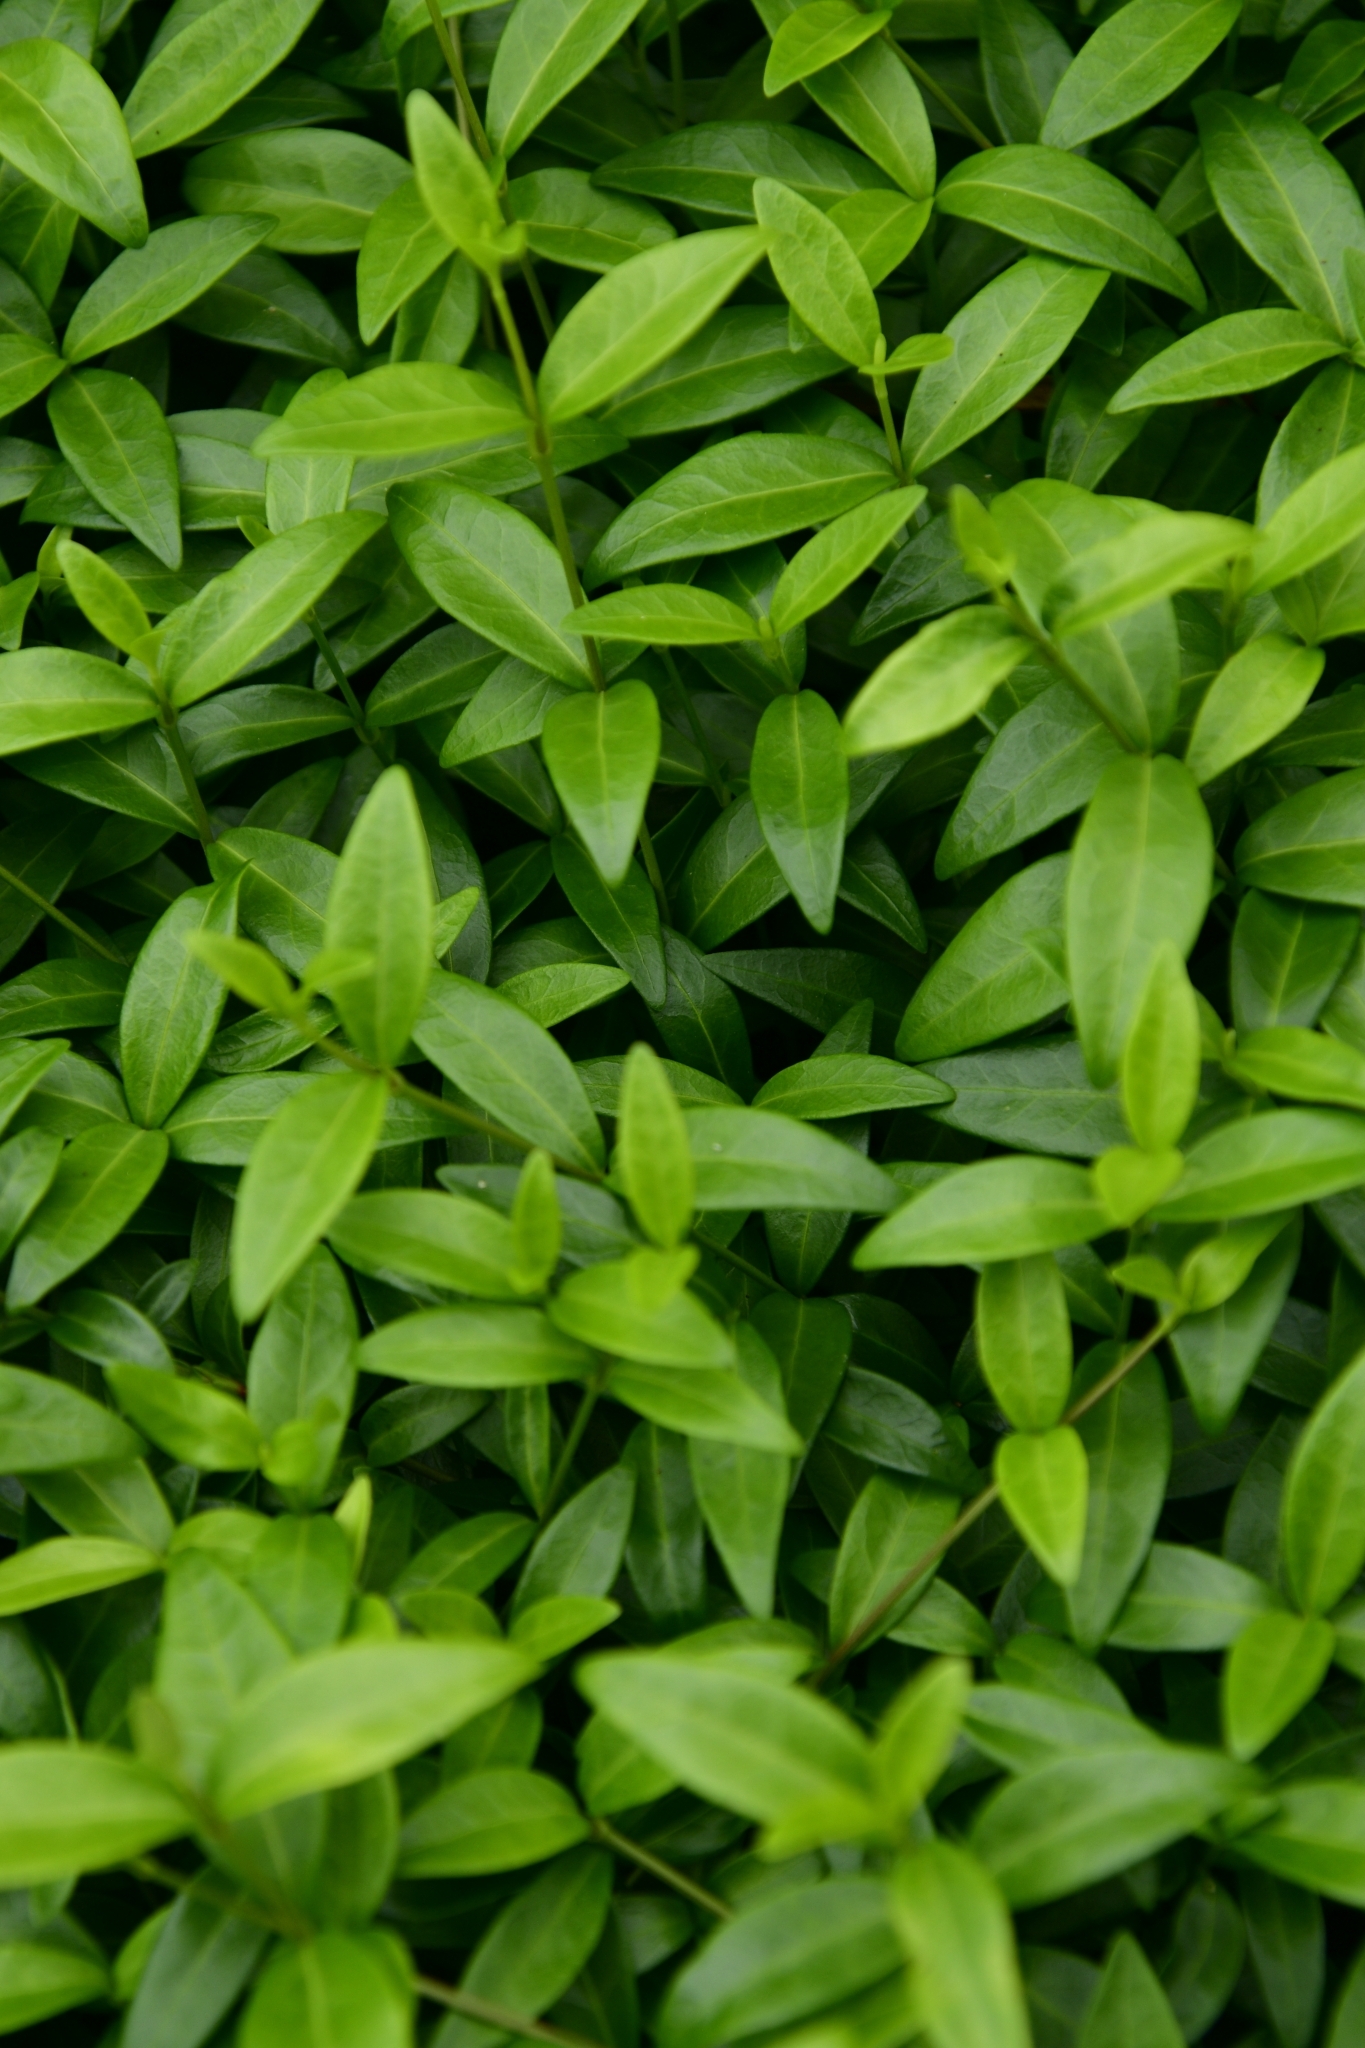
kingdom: Plantae
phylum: Tracheophyta
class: Magnoliopsida
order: Gentianales
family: Apocynaceae
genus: Vinca
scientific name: Vinca minor
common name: Lesser periwinkle
